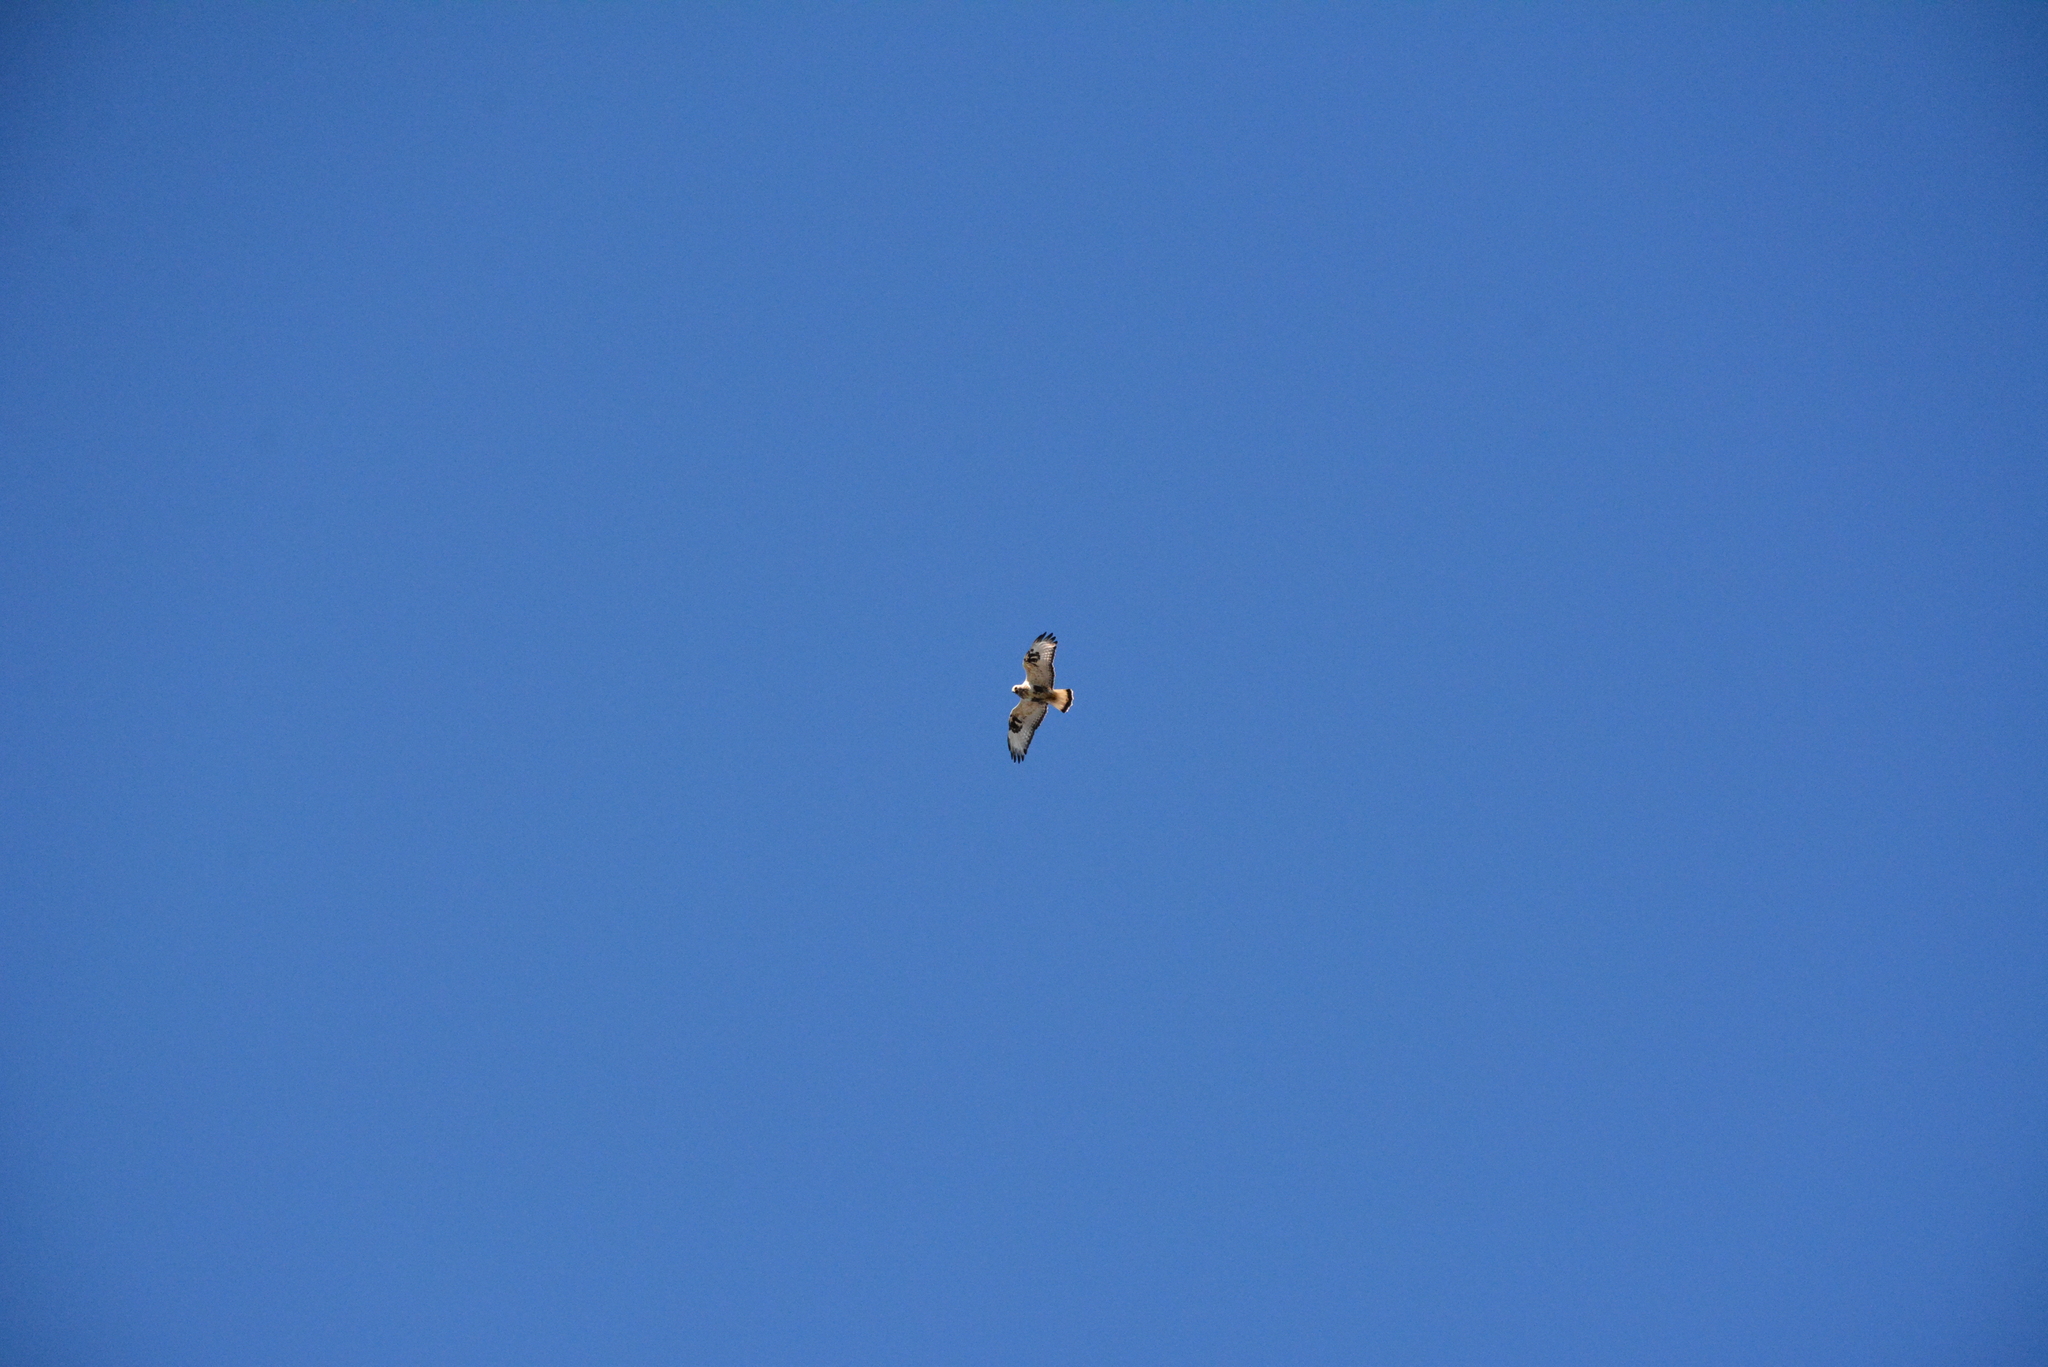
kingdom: Animalia
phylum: Chordata
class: Aves
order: Accipitriformes
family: Accipitridae
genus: Buteo
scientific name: Buteo lagopus
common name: Rough-legged buzzard
